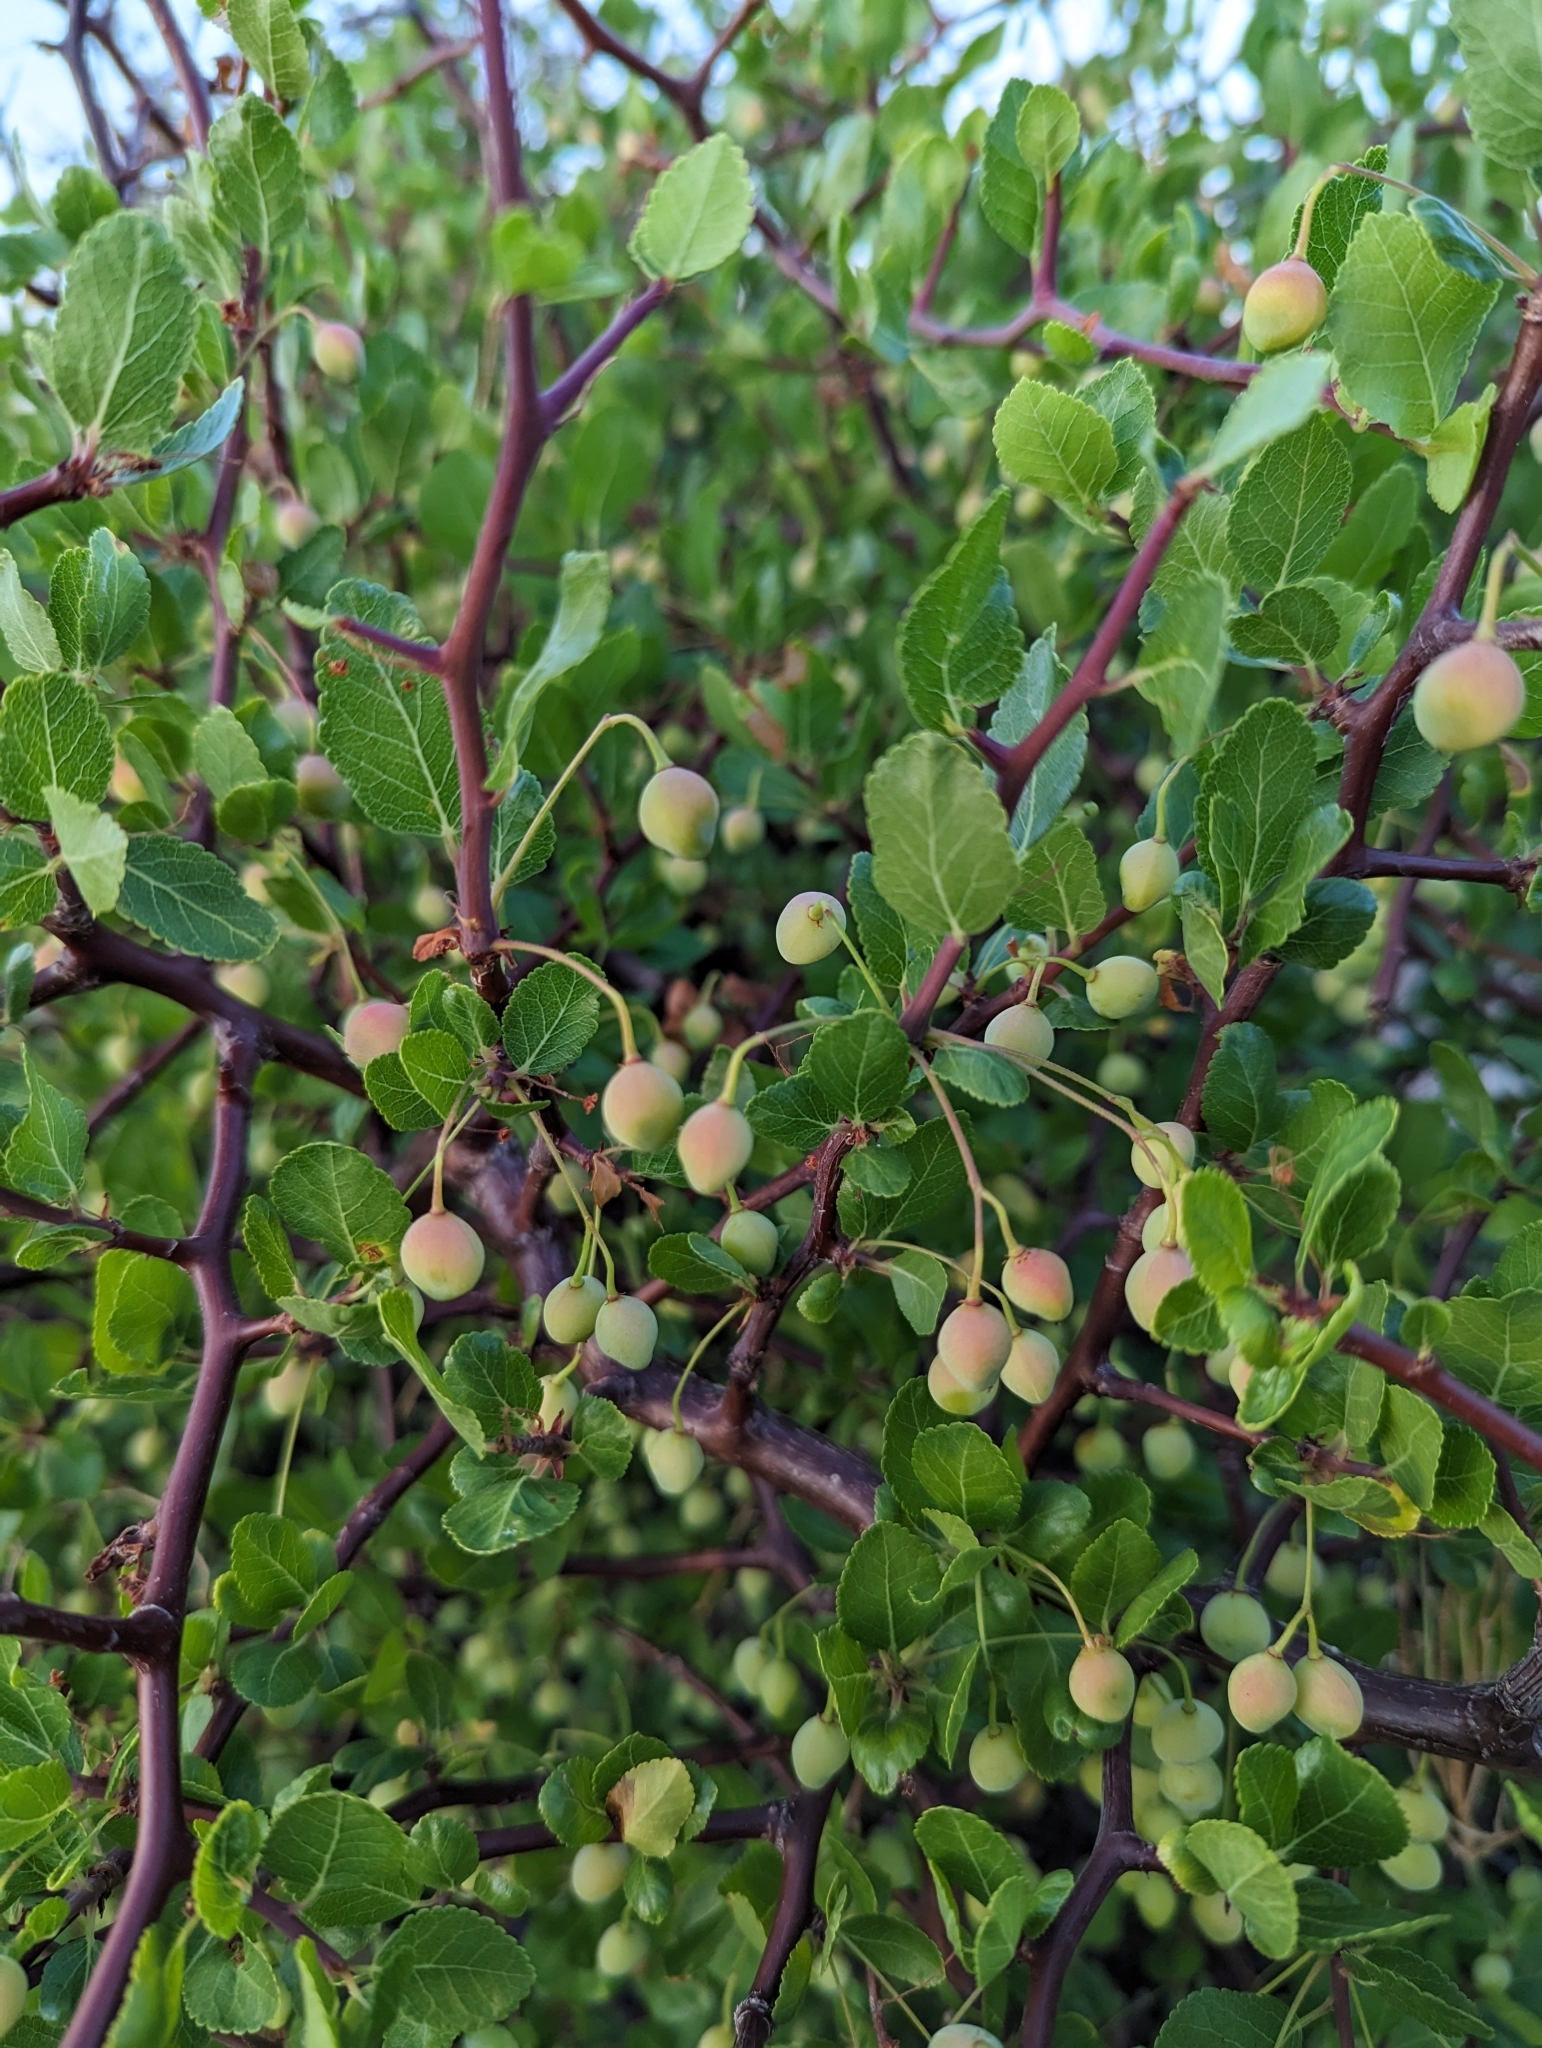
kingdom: Plantae
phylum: Tracheophyta
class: Magnoliopsida
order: Sapindales
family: Burseraceae
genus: Bursera
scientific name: Bursera epinnata
